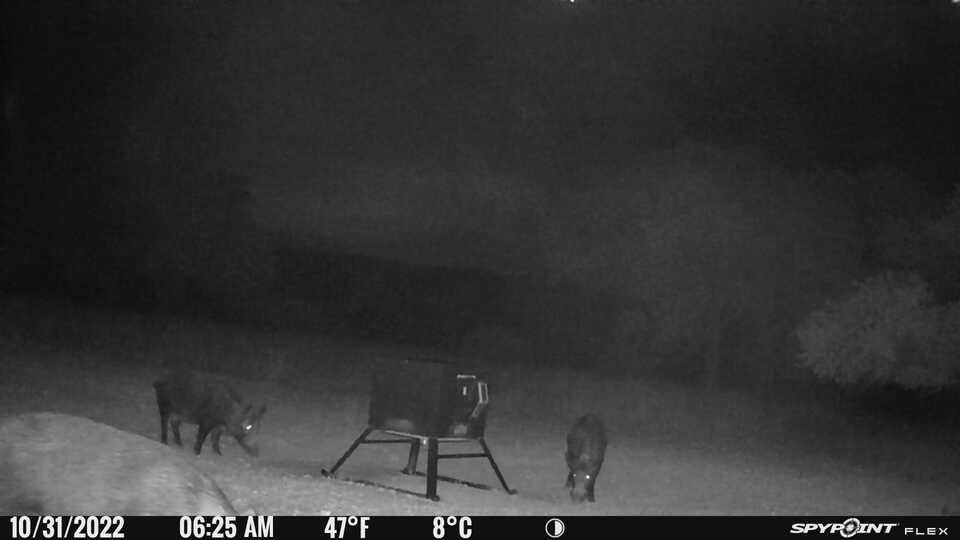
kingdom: Animalia
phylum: Chordata
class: Mammalia
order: Artiodactyla
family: Suidae
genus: Sus
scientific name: Sus scrofa
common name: Wild boar
